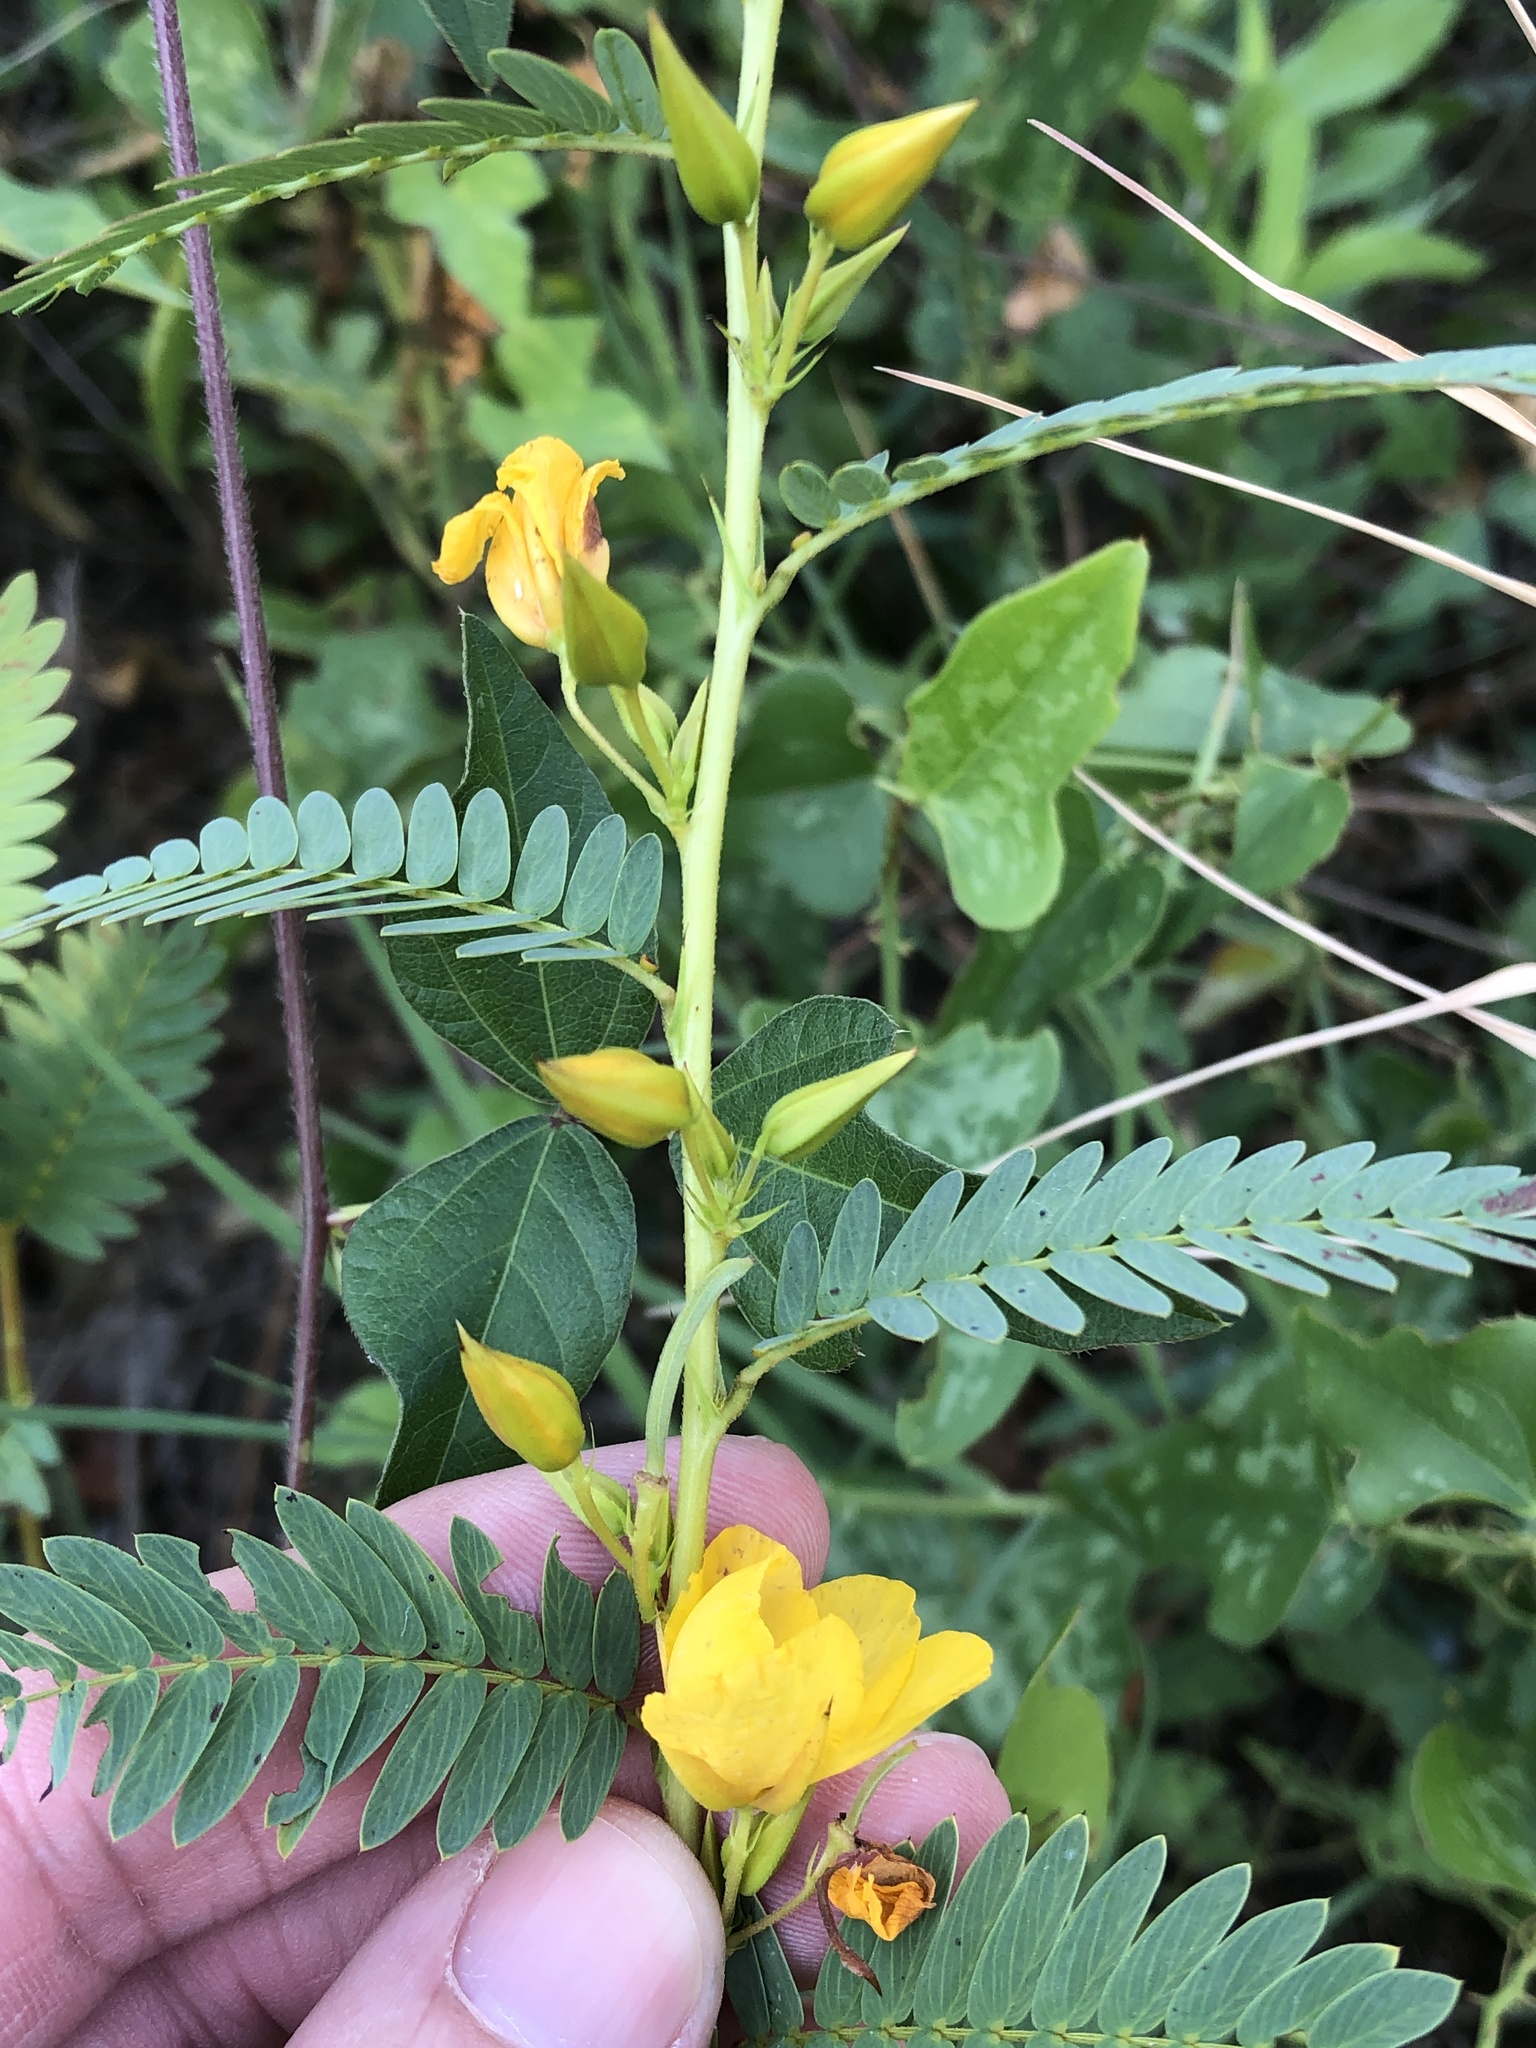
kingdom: Plantae
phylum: Tracheophyta
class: Magnoliopsida
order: Fabales
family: Fabaceae
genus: Chamaecrista
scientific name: Chamaecrista fasciculata
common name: Golden cassia
